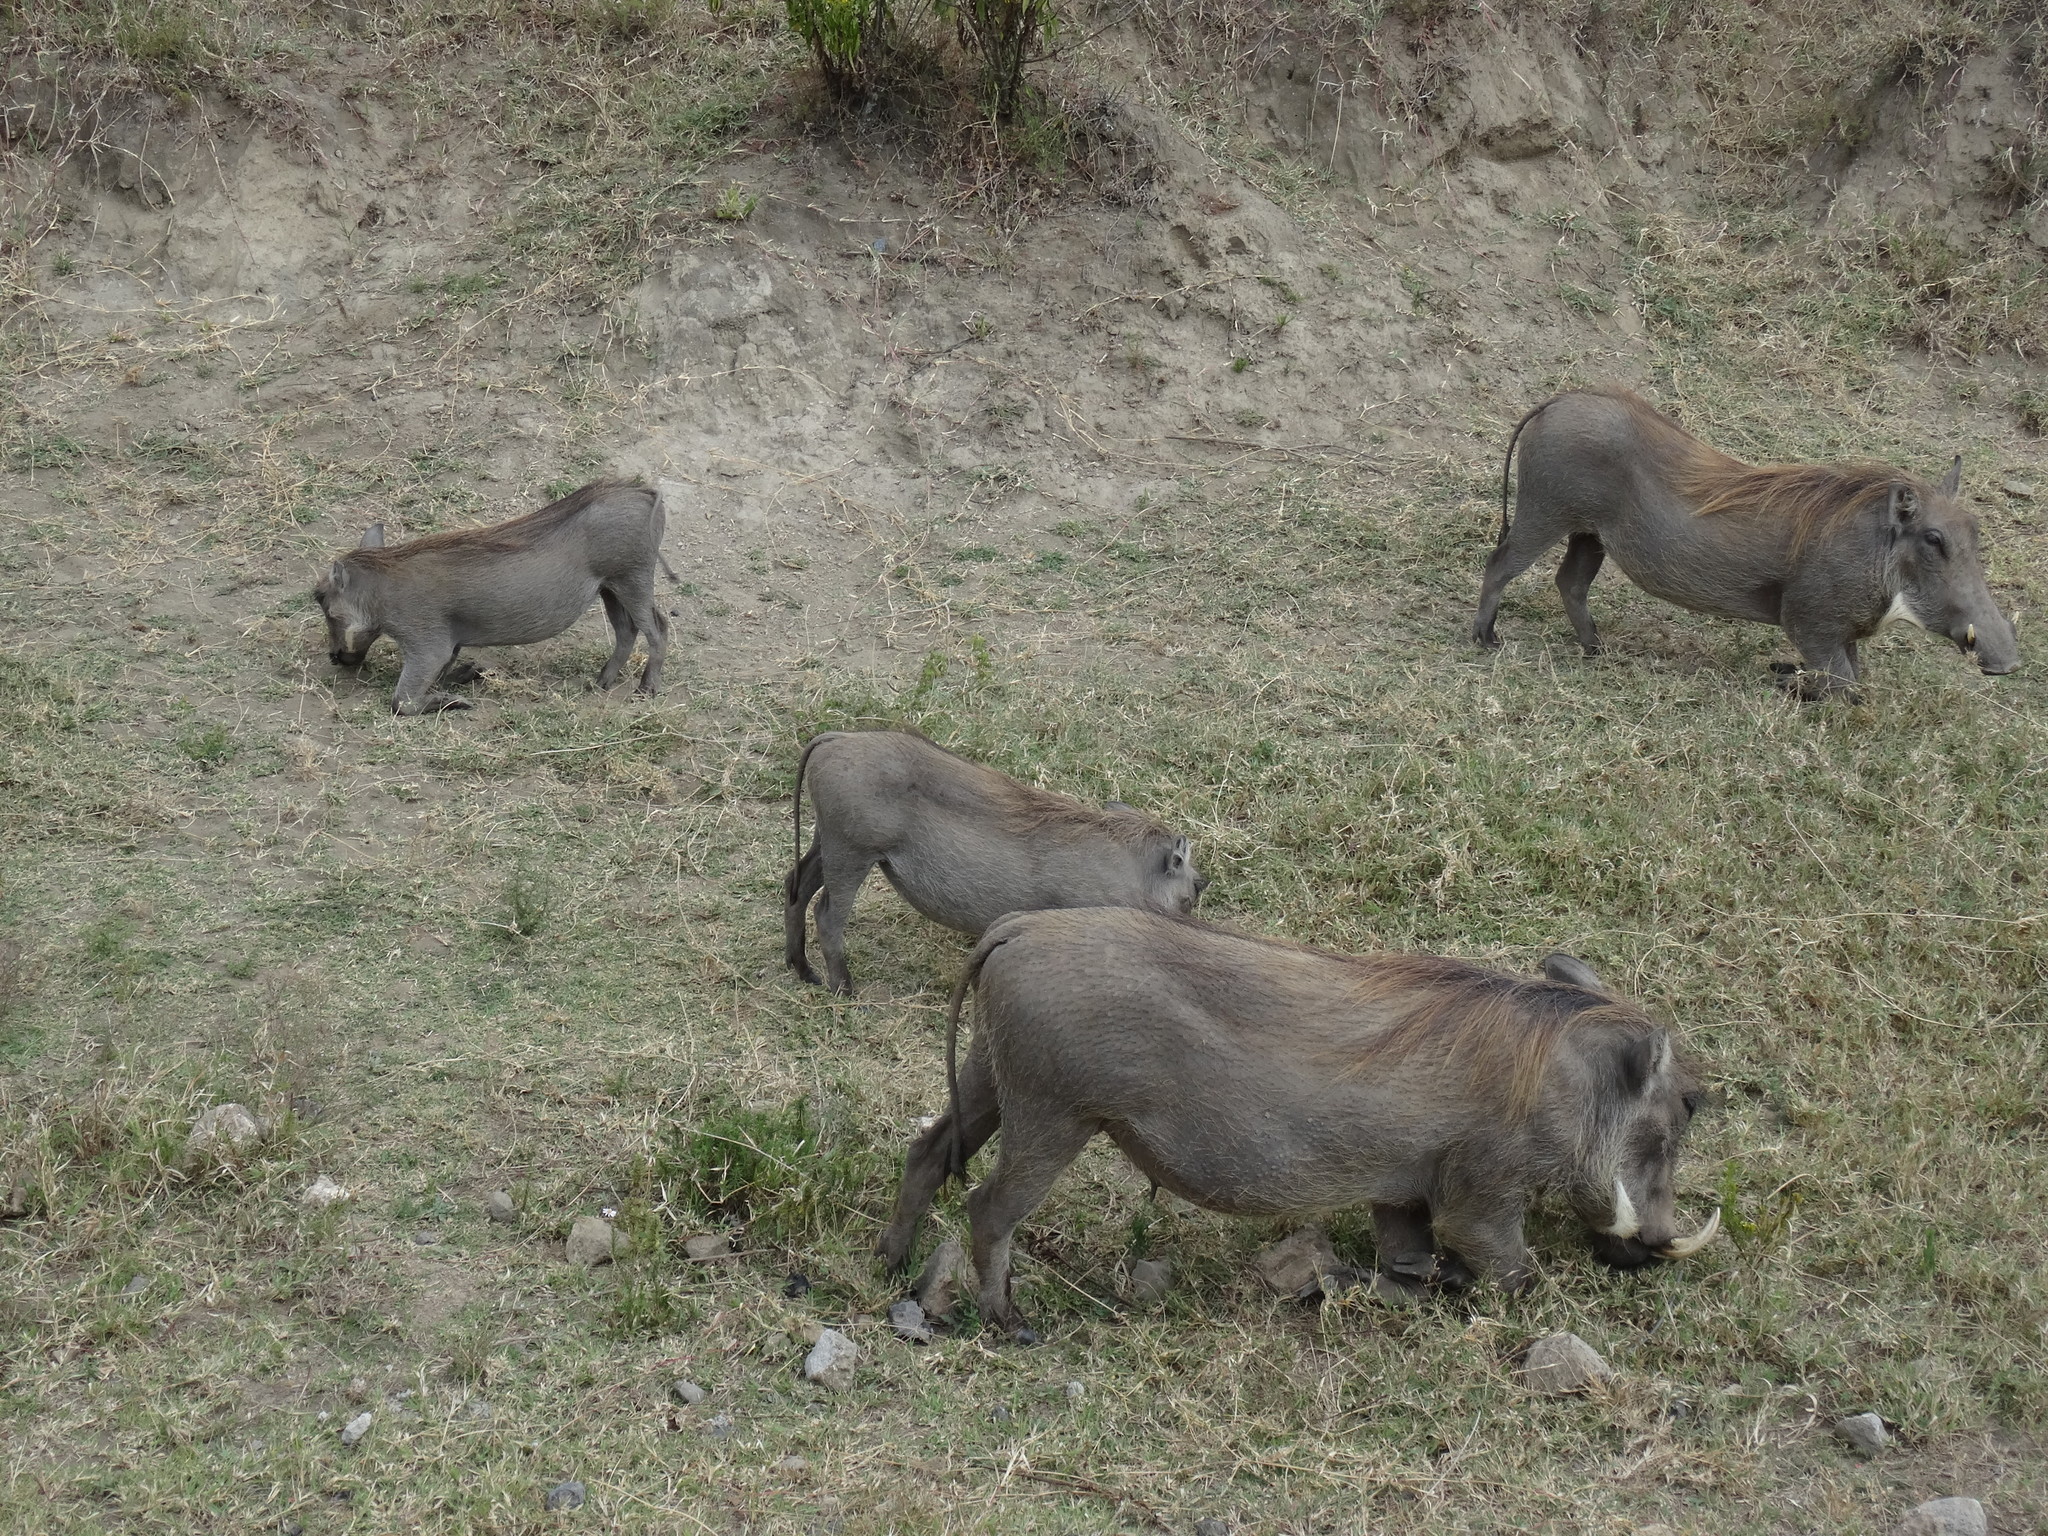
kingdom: Animalia
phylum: Chordata
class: Mammalia
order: Artiodactyla
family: Suidae
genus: Phacochoerus
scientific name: Phacochoerus africanus
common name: Common warthog
